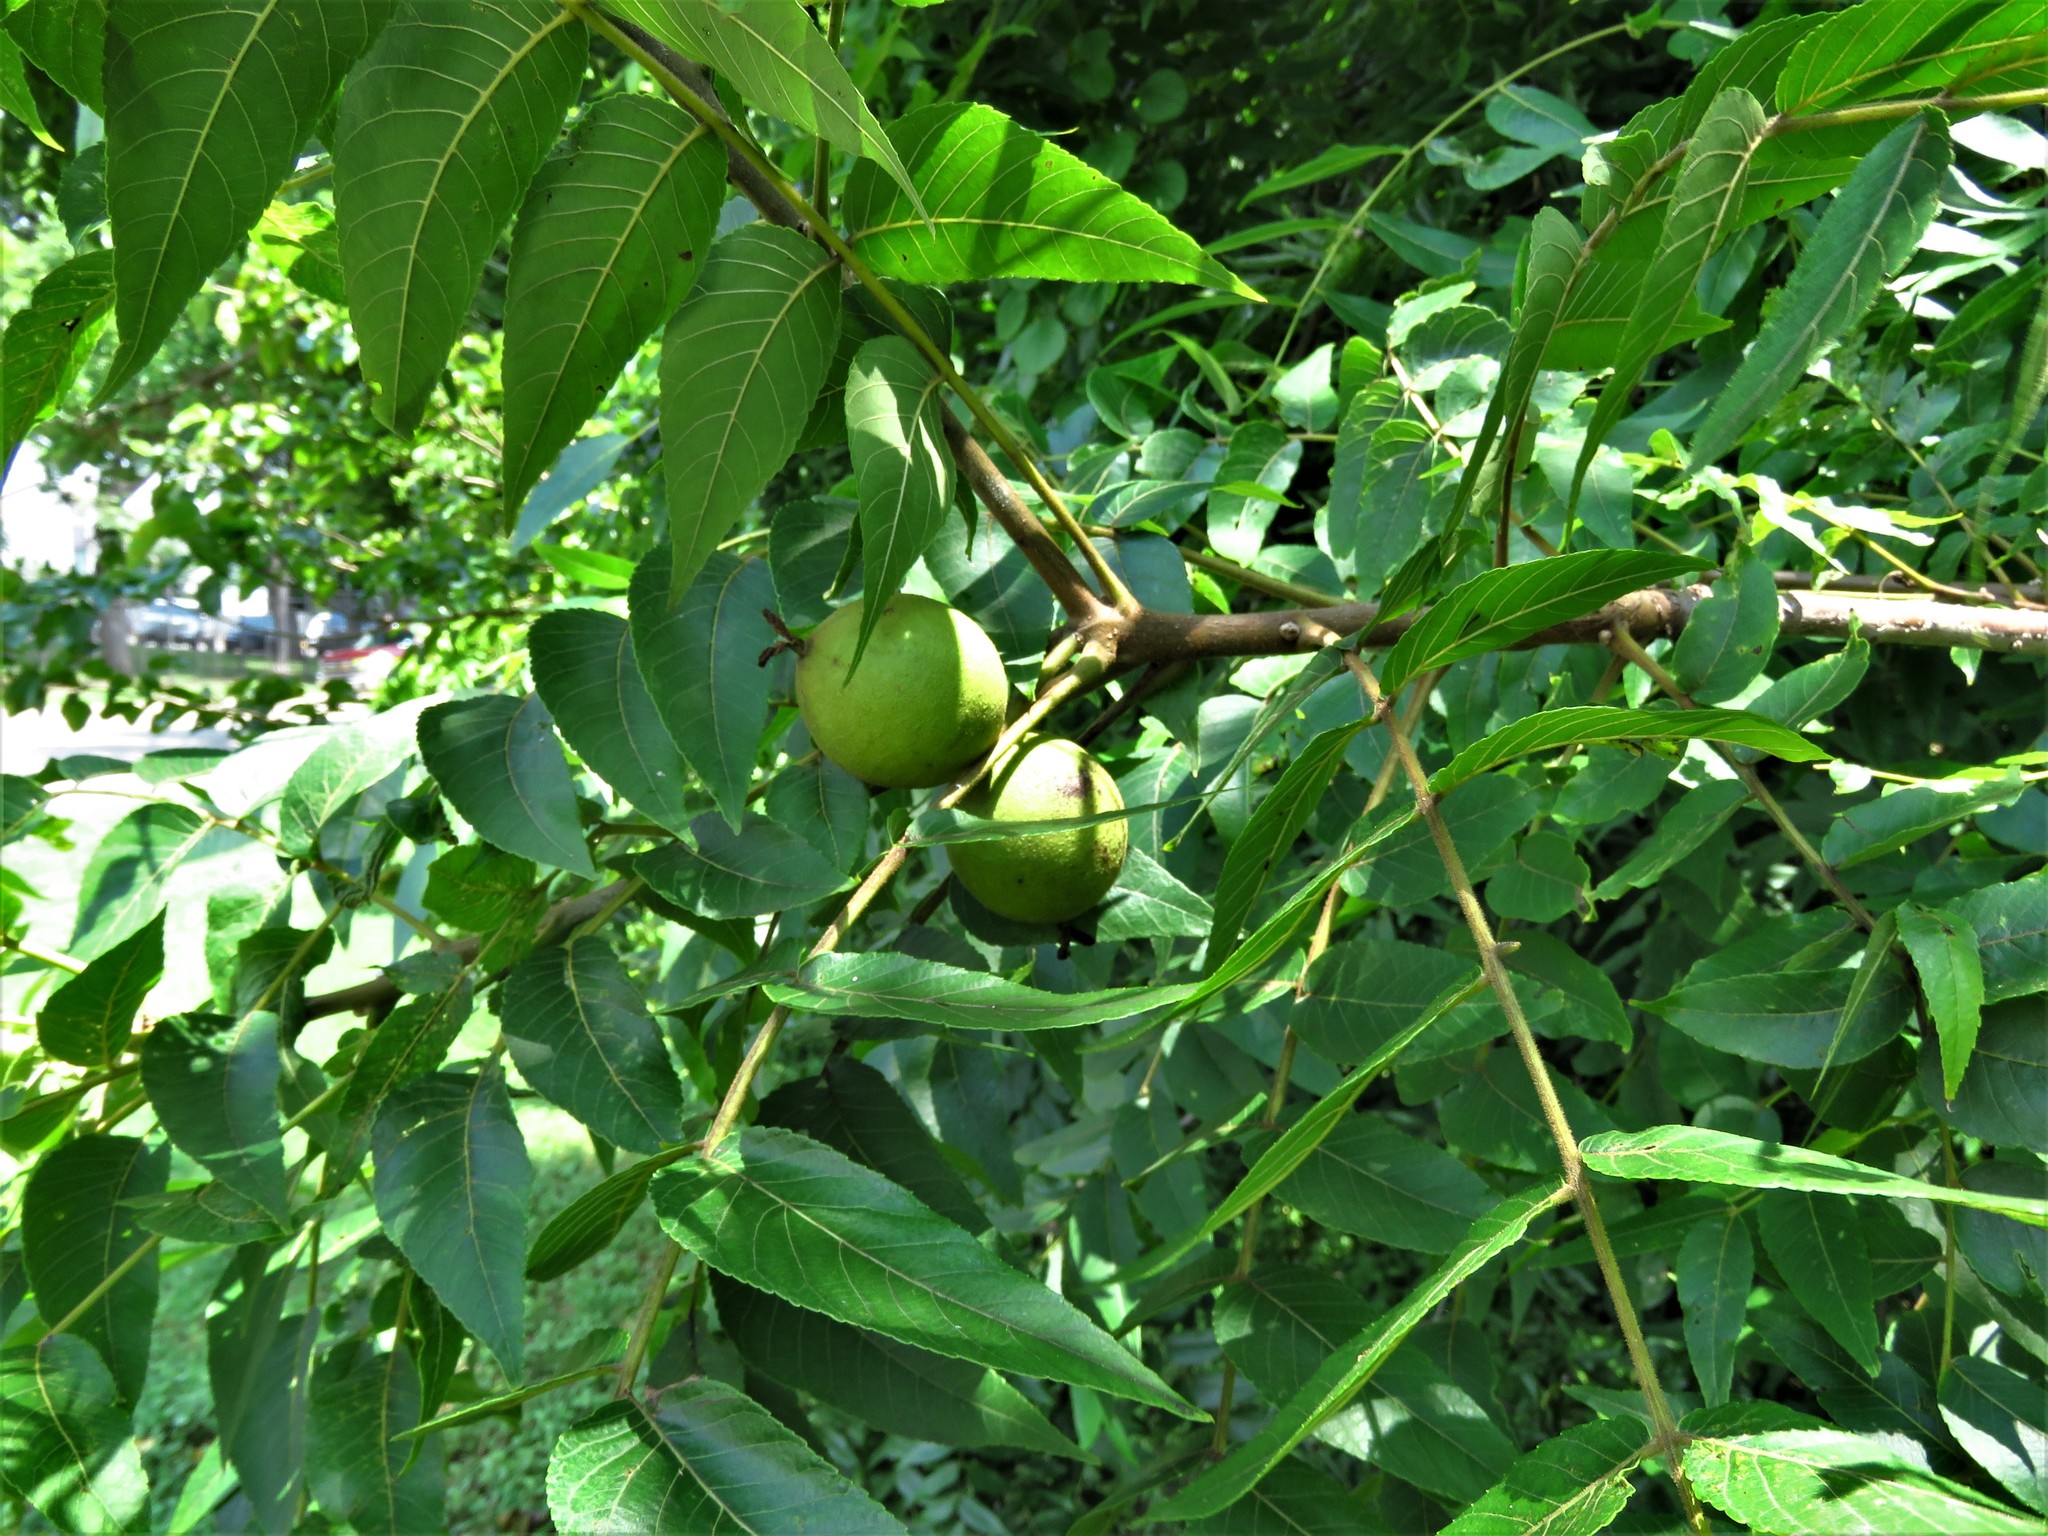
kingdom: Plantae
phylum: Tracheophyta
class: Magnoliopsida
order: Fagales
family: Juglandaceae
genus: Juglans
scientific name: Juglans nigra
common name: Black walnut
